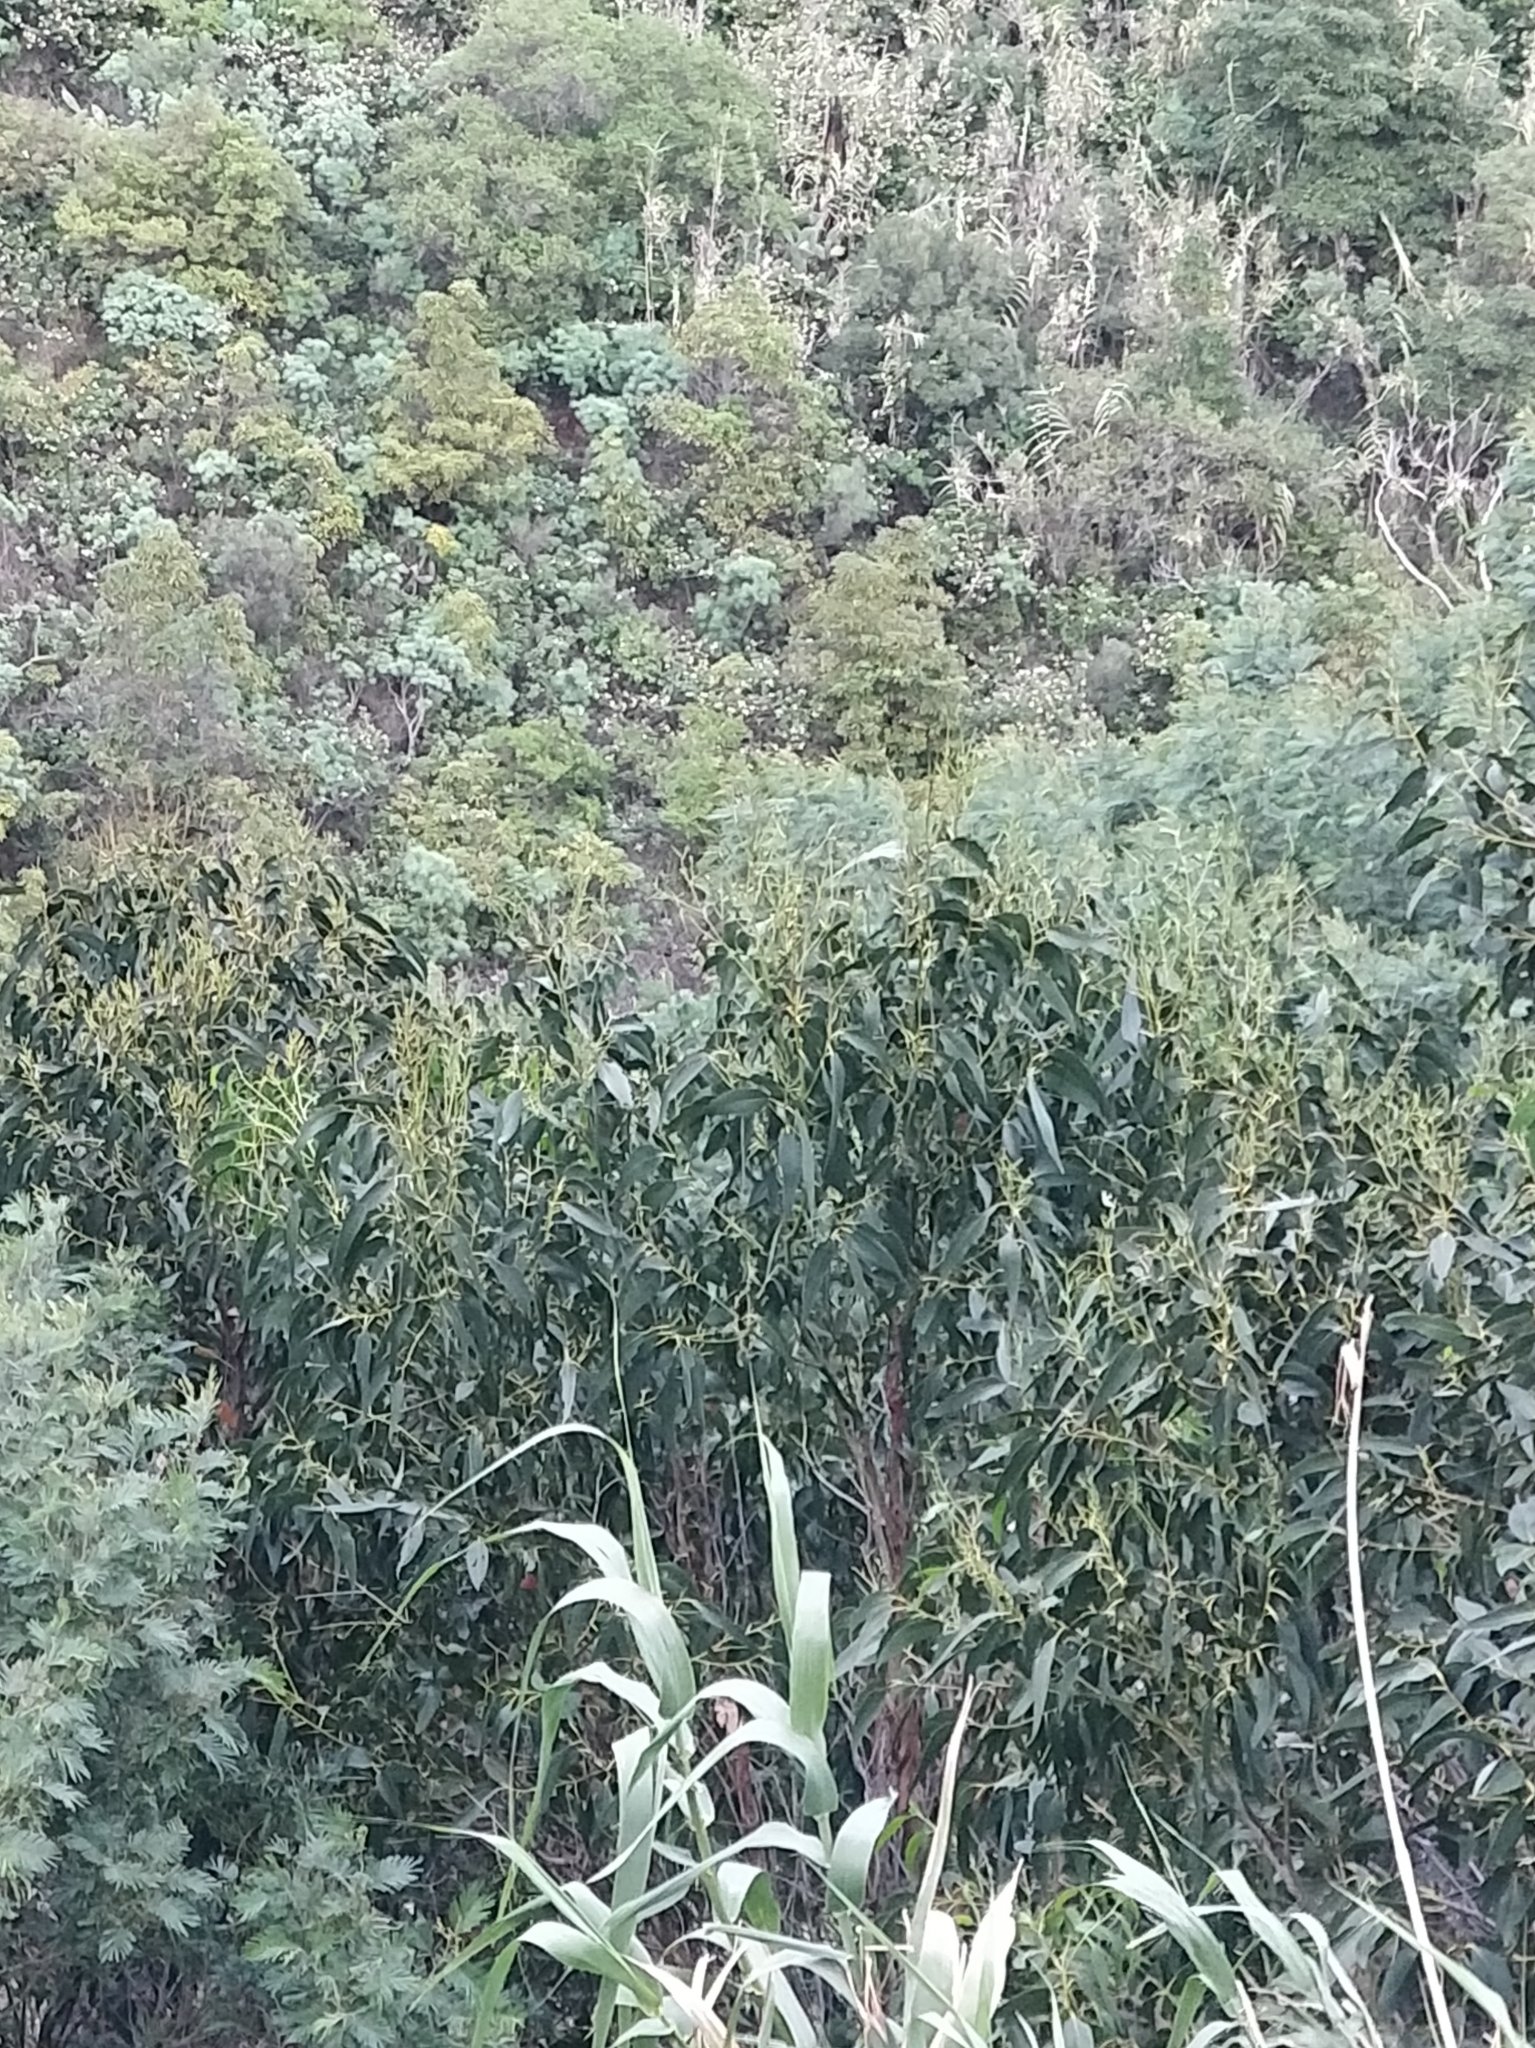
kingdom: Plantae
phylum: Tracheophyta
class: Magnoliopsida
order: Myrtales
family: Myrtaceae
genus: Eucalyptus
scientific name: Eucalyptus globulus
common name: Southern blue-gum
